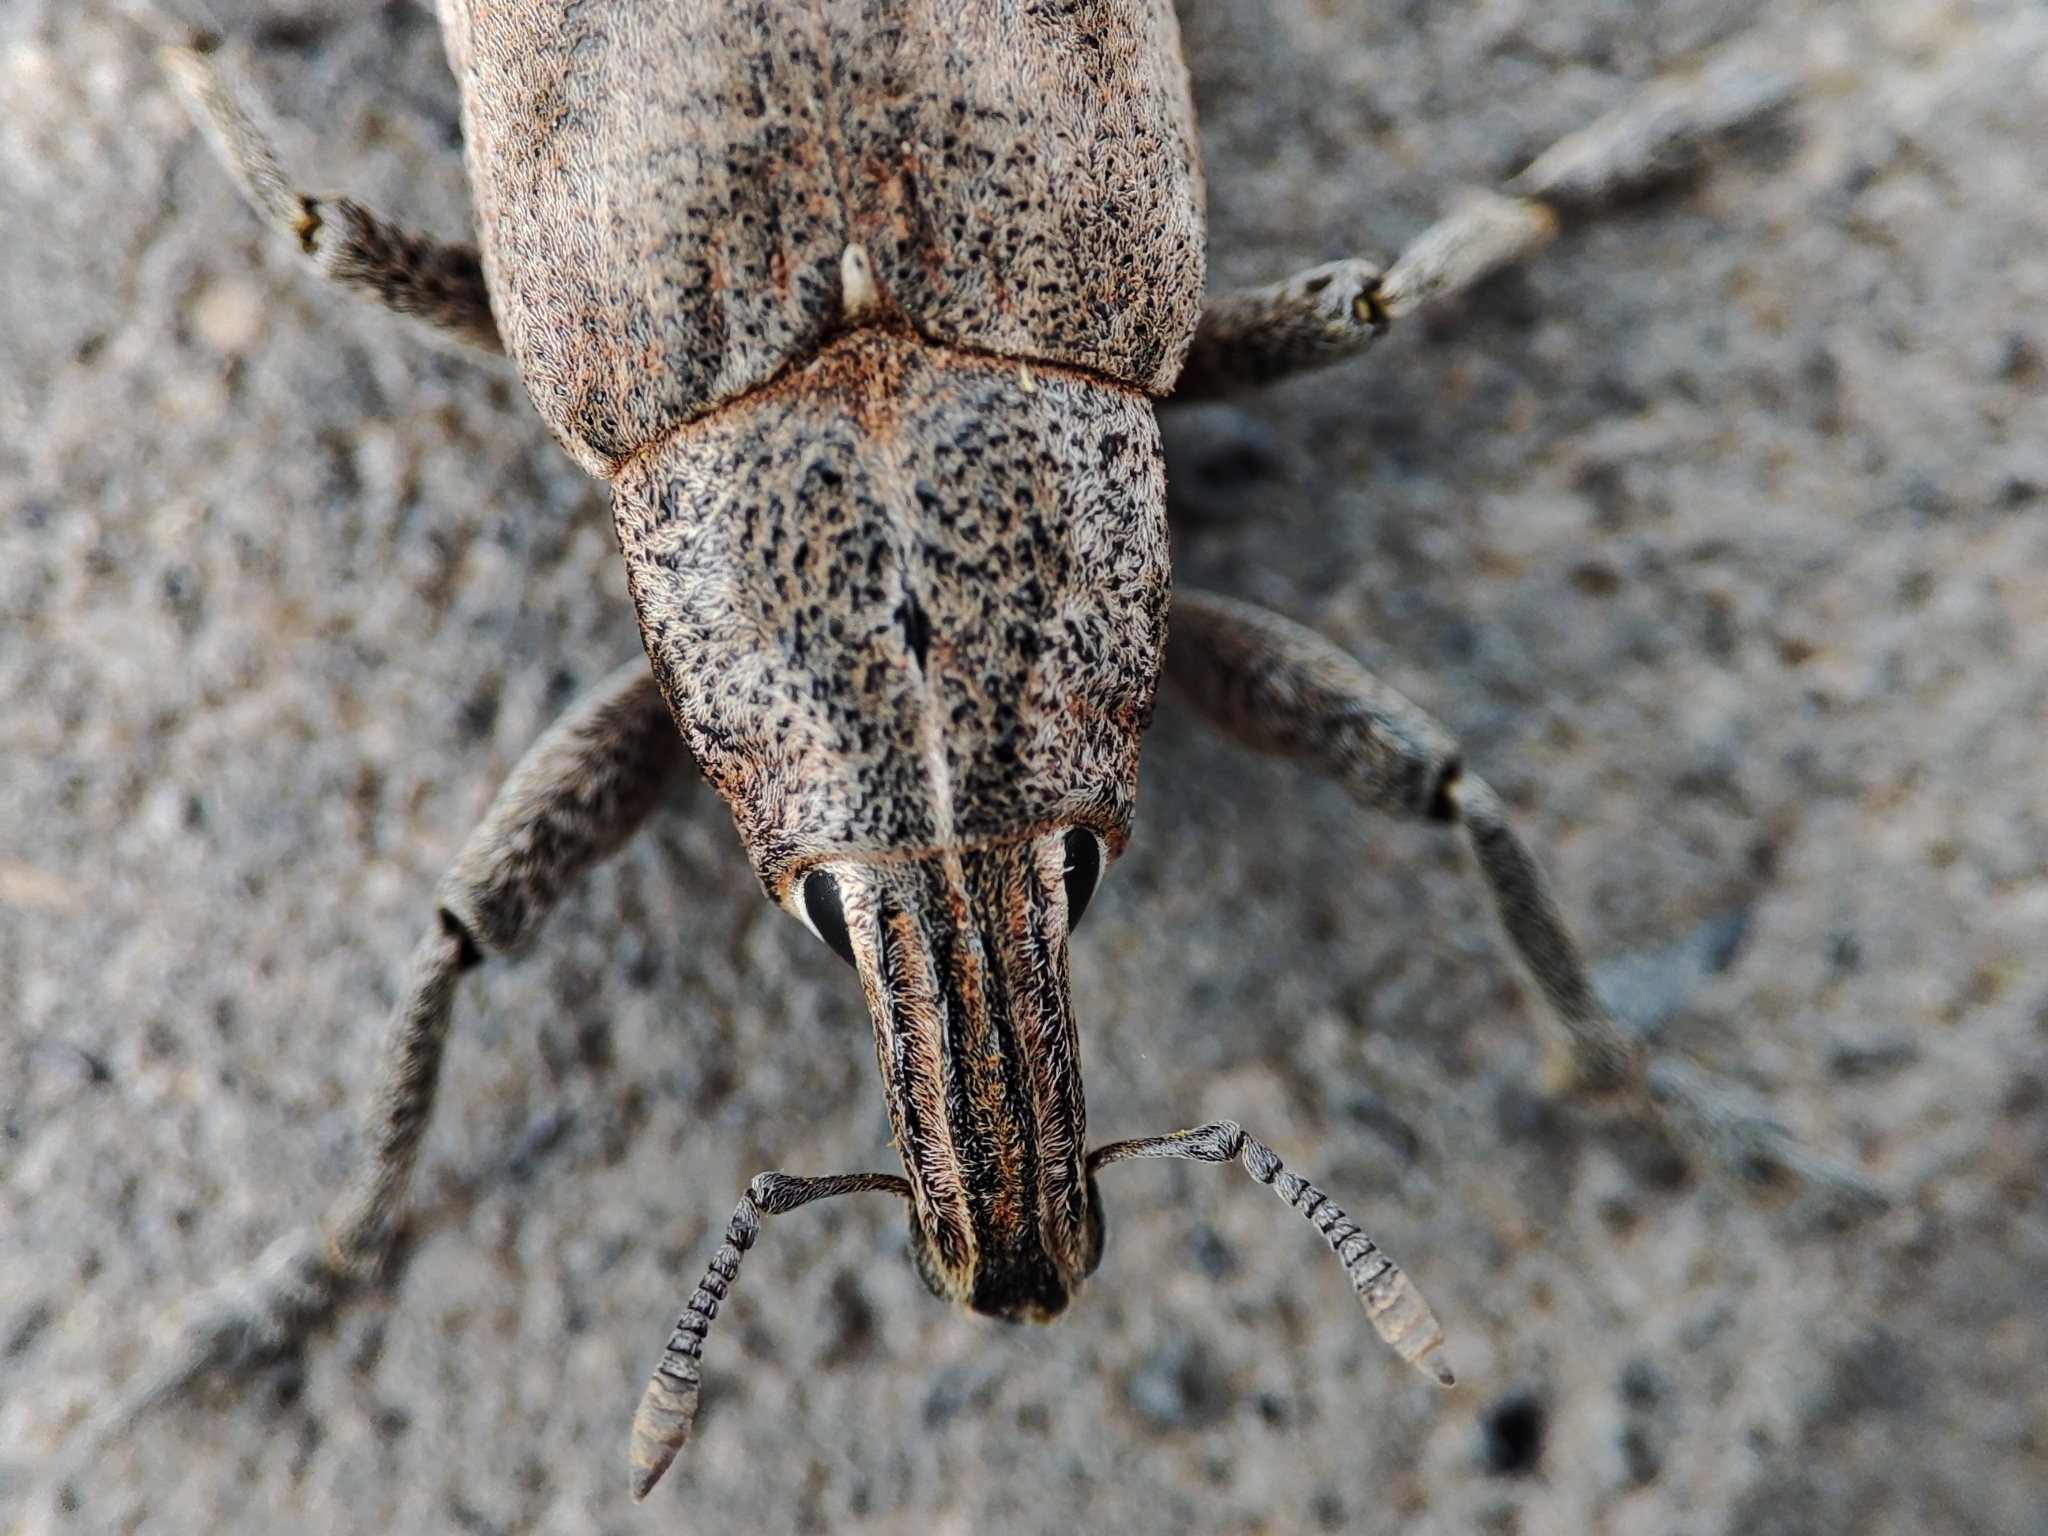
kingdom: Animalia
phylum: Arthropoda
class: Insecta
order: Coleoptera
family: Curculionidae
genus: Cleonis
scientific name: Cleonis pigra
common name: Large thistle weevil
